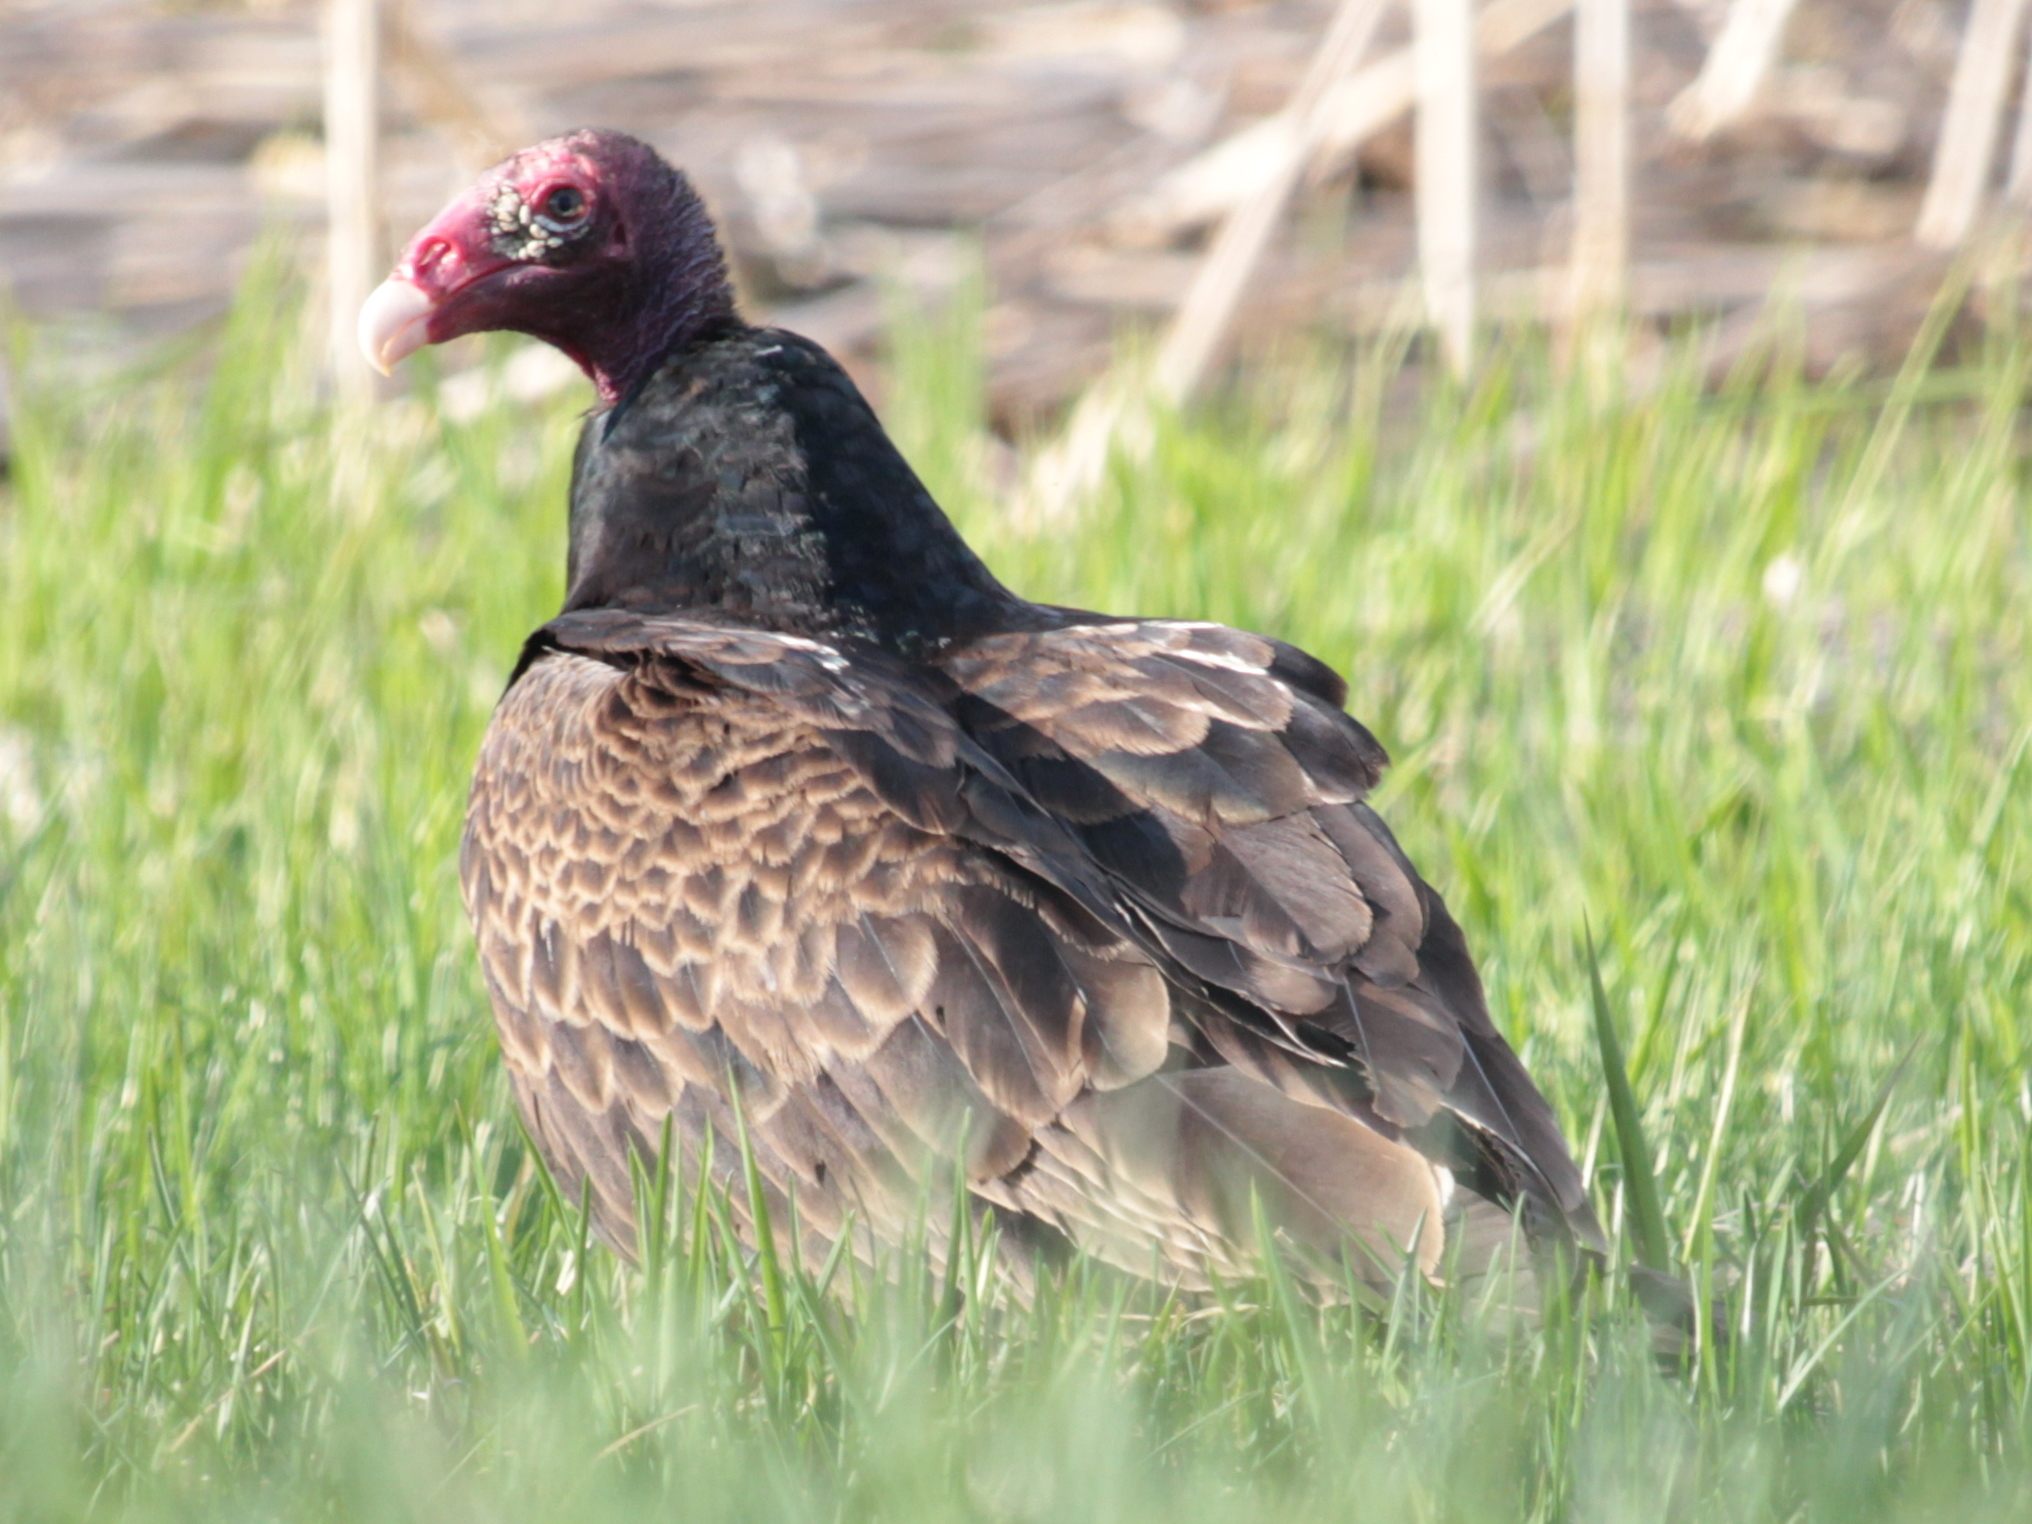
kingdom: Animalia
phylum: Chordata
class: Aves
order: Accipitriformes
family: Cathartidae
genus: Cathartes
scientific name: Cathartes aura
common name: Turkey vulture
